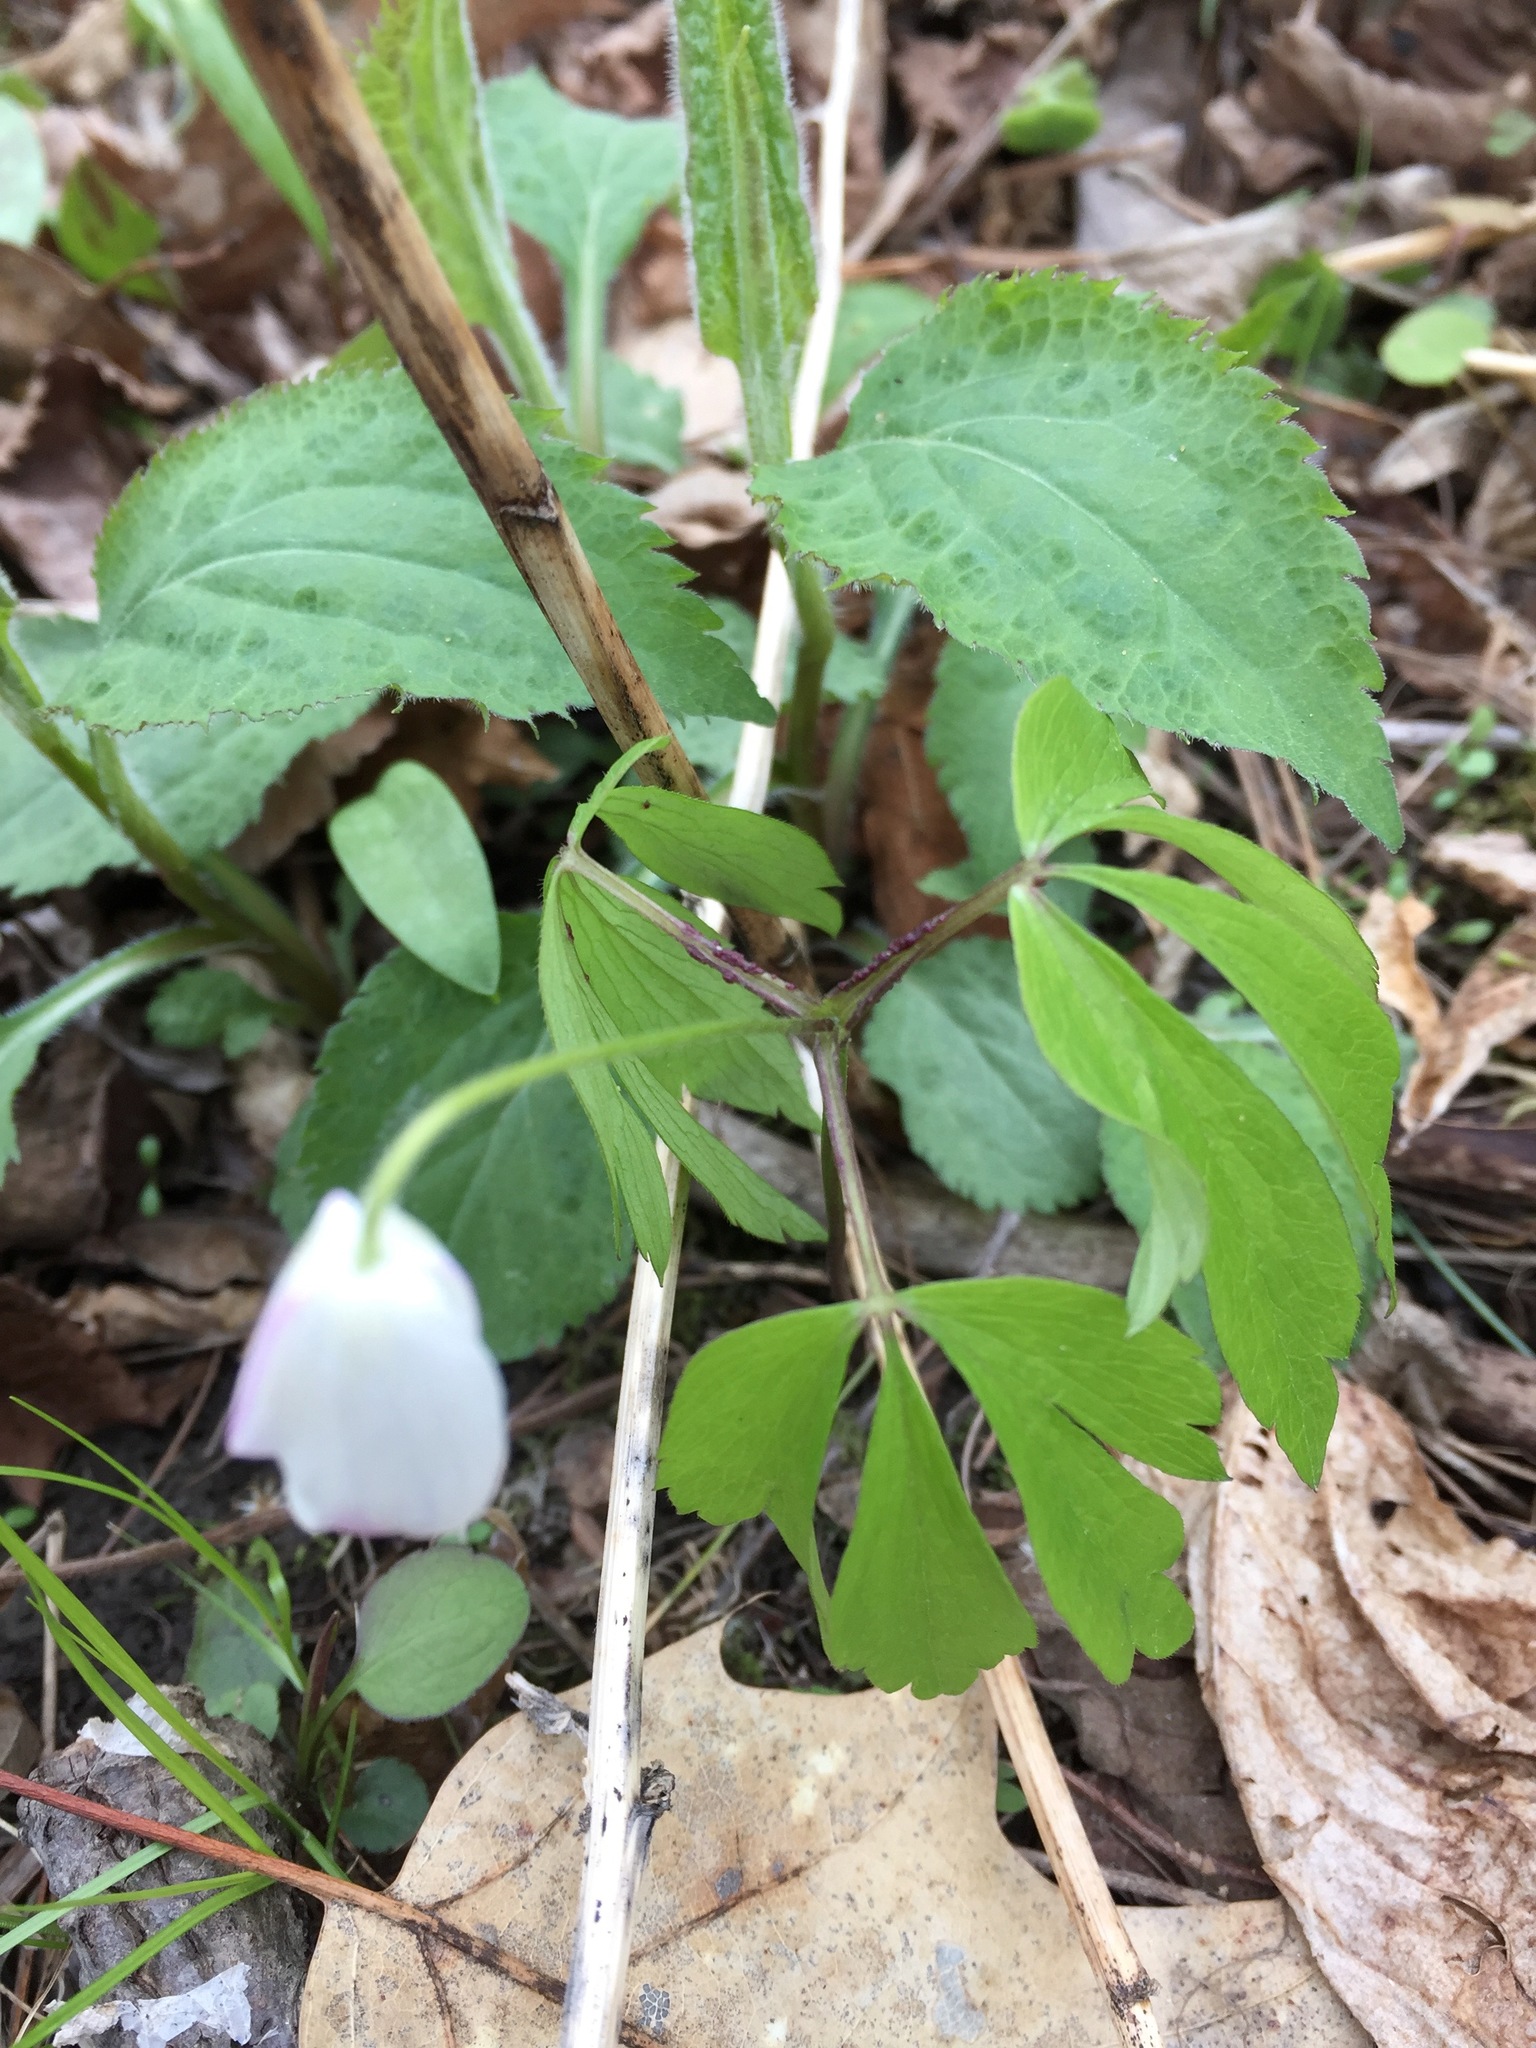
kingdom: Plantae
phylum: Tracheophyta
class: Magnoliopsida
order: Ranunculales
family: Ranunculaceae
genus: Anemone
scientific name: Anemone quinquefolia
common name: Wood anemone
